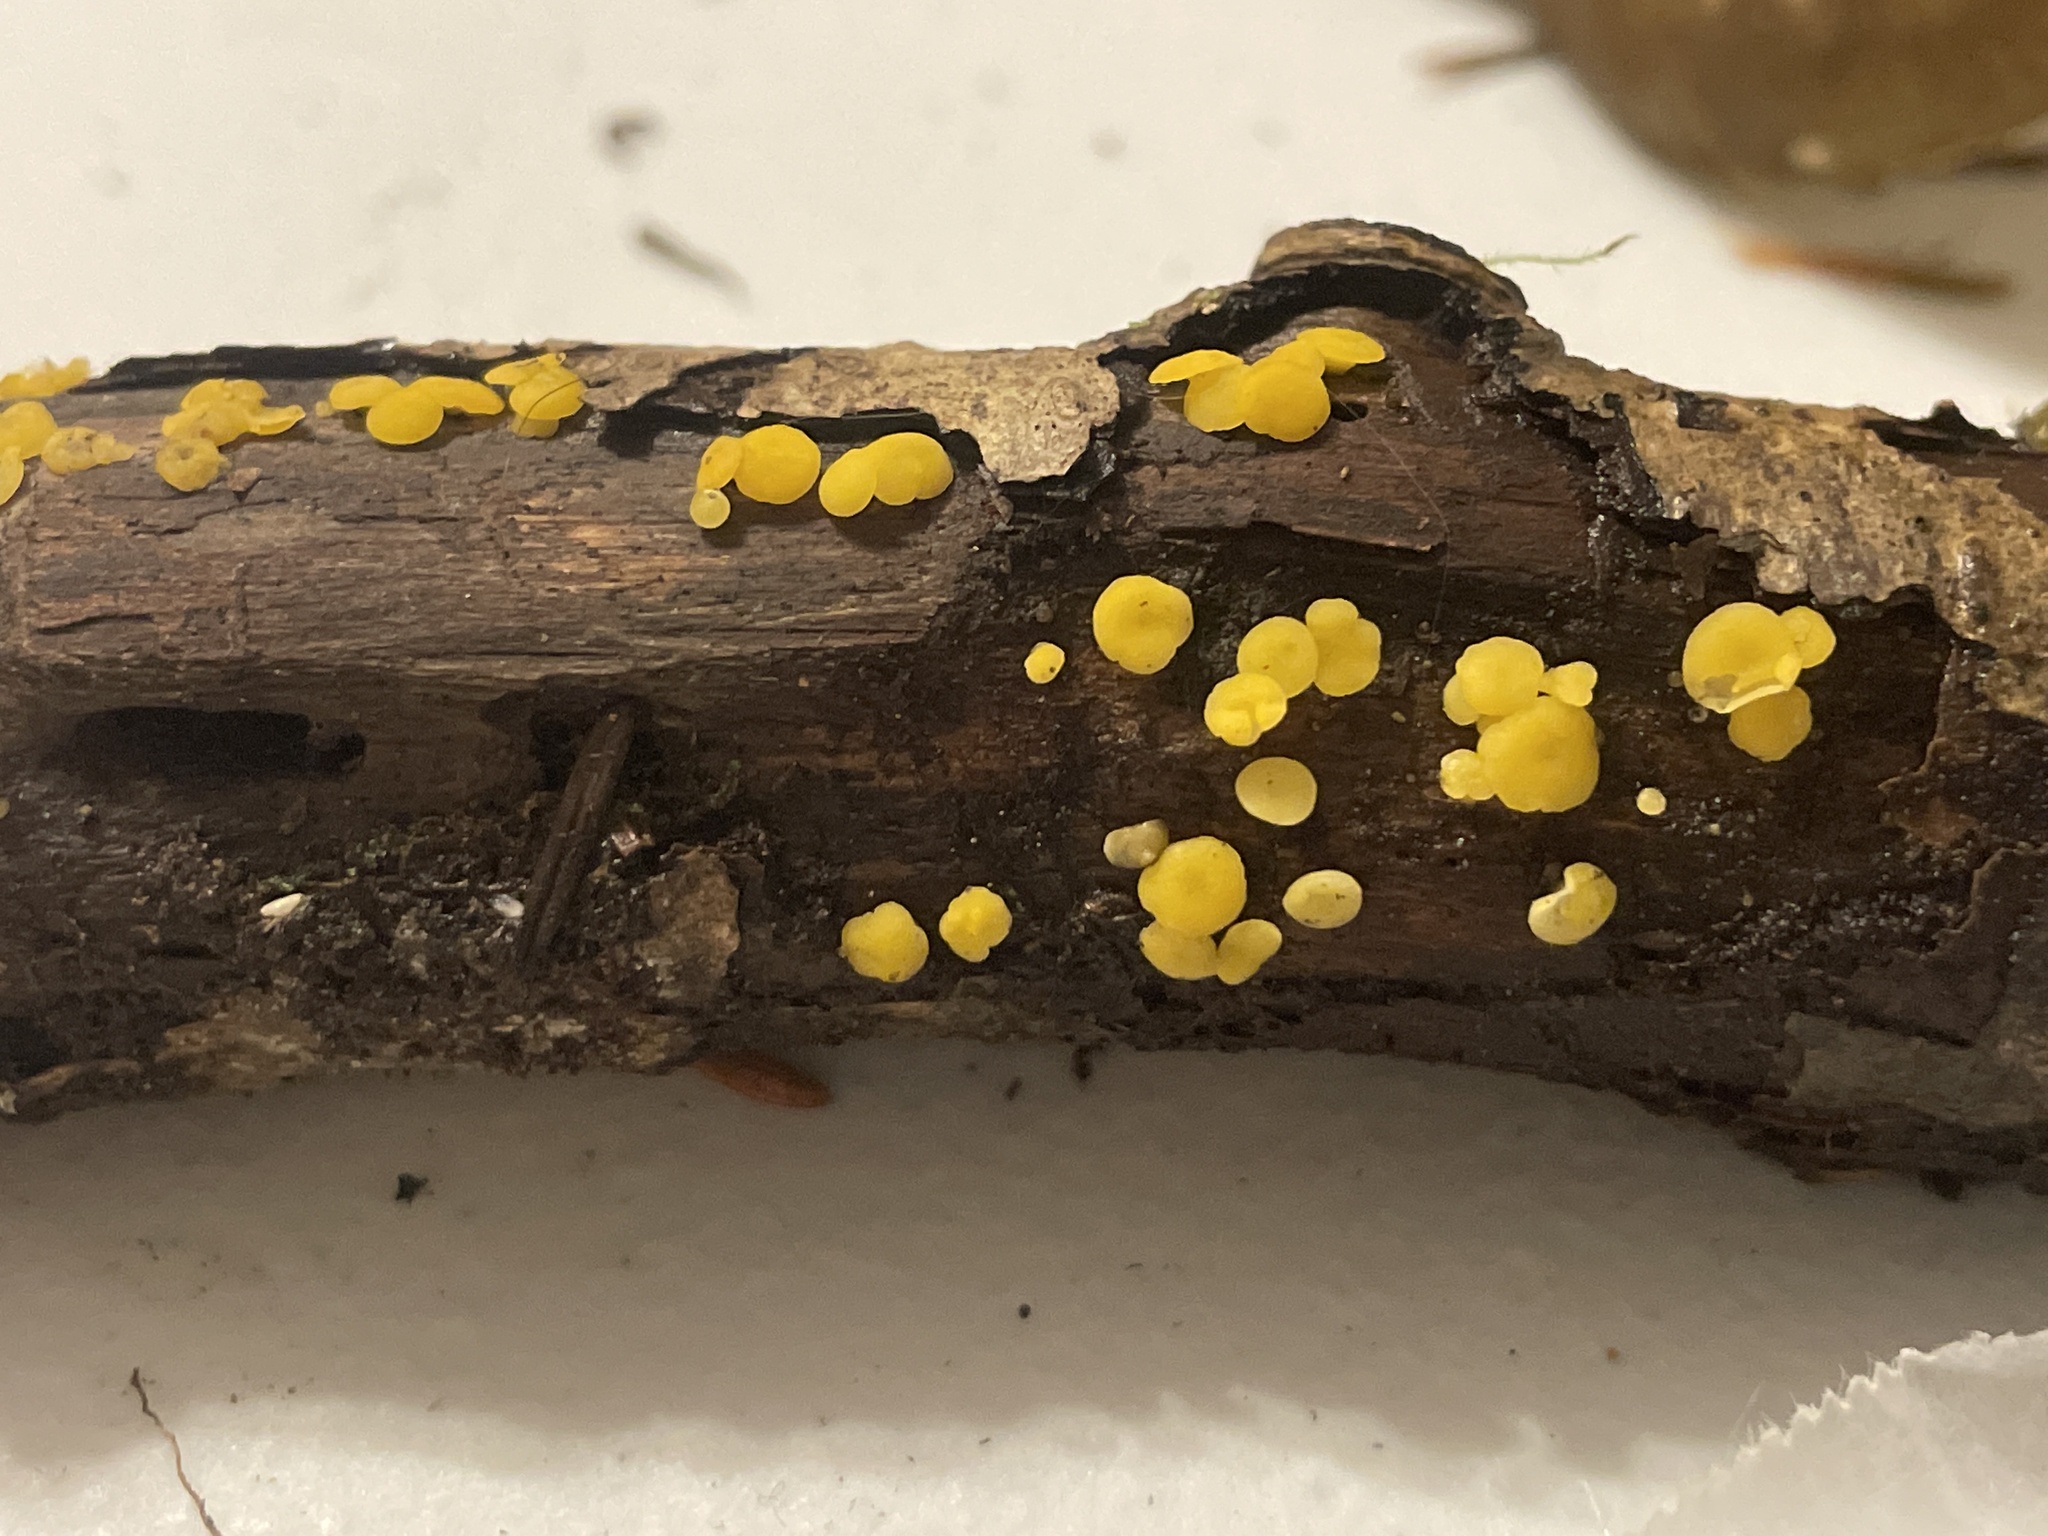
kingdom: Fungi
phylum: Ascomycota
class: Leotiomycetes
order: Helotiales
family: Pezizellaceae
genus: Calycina
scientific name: Calycina citrina
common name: Yellow fairy cups
